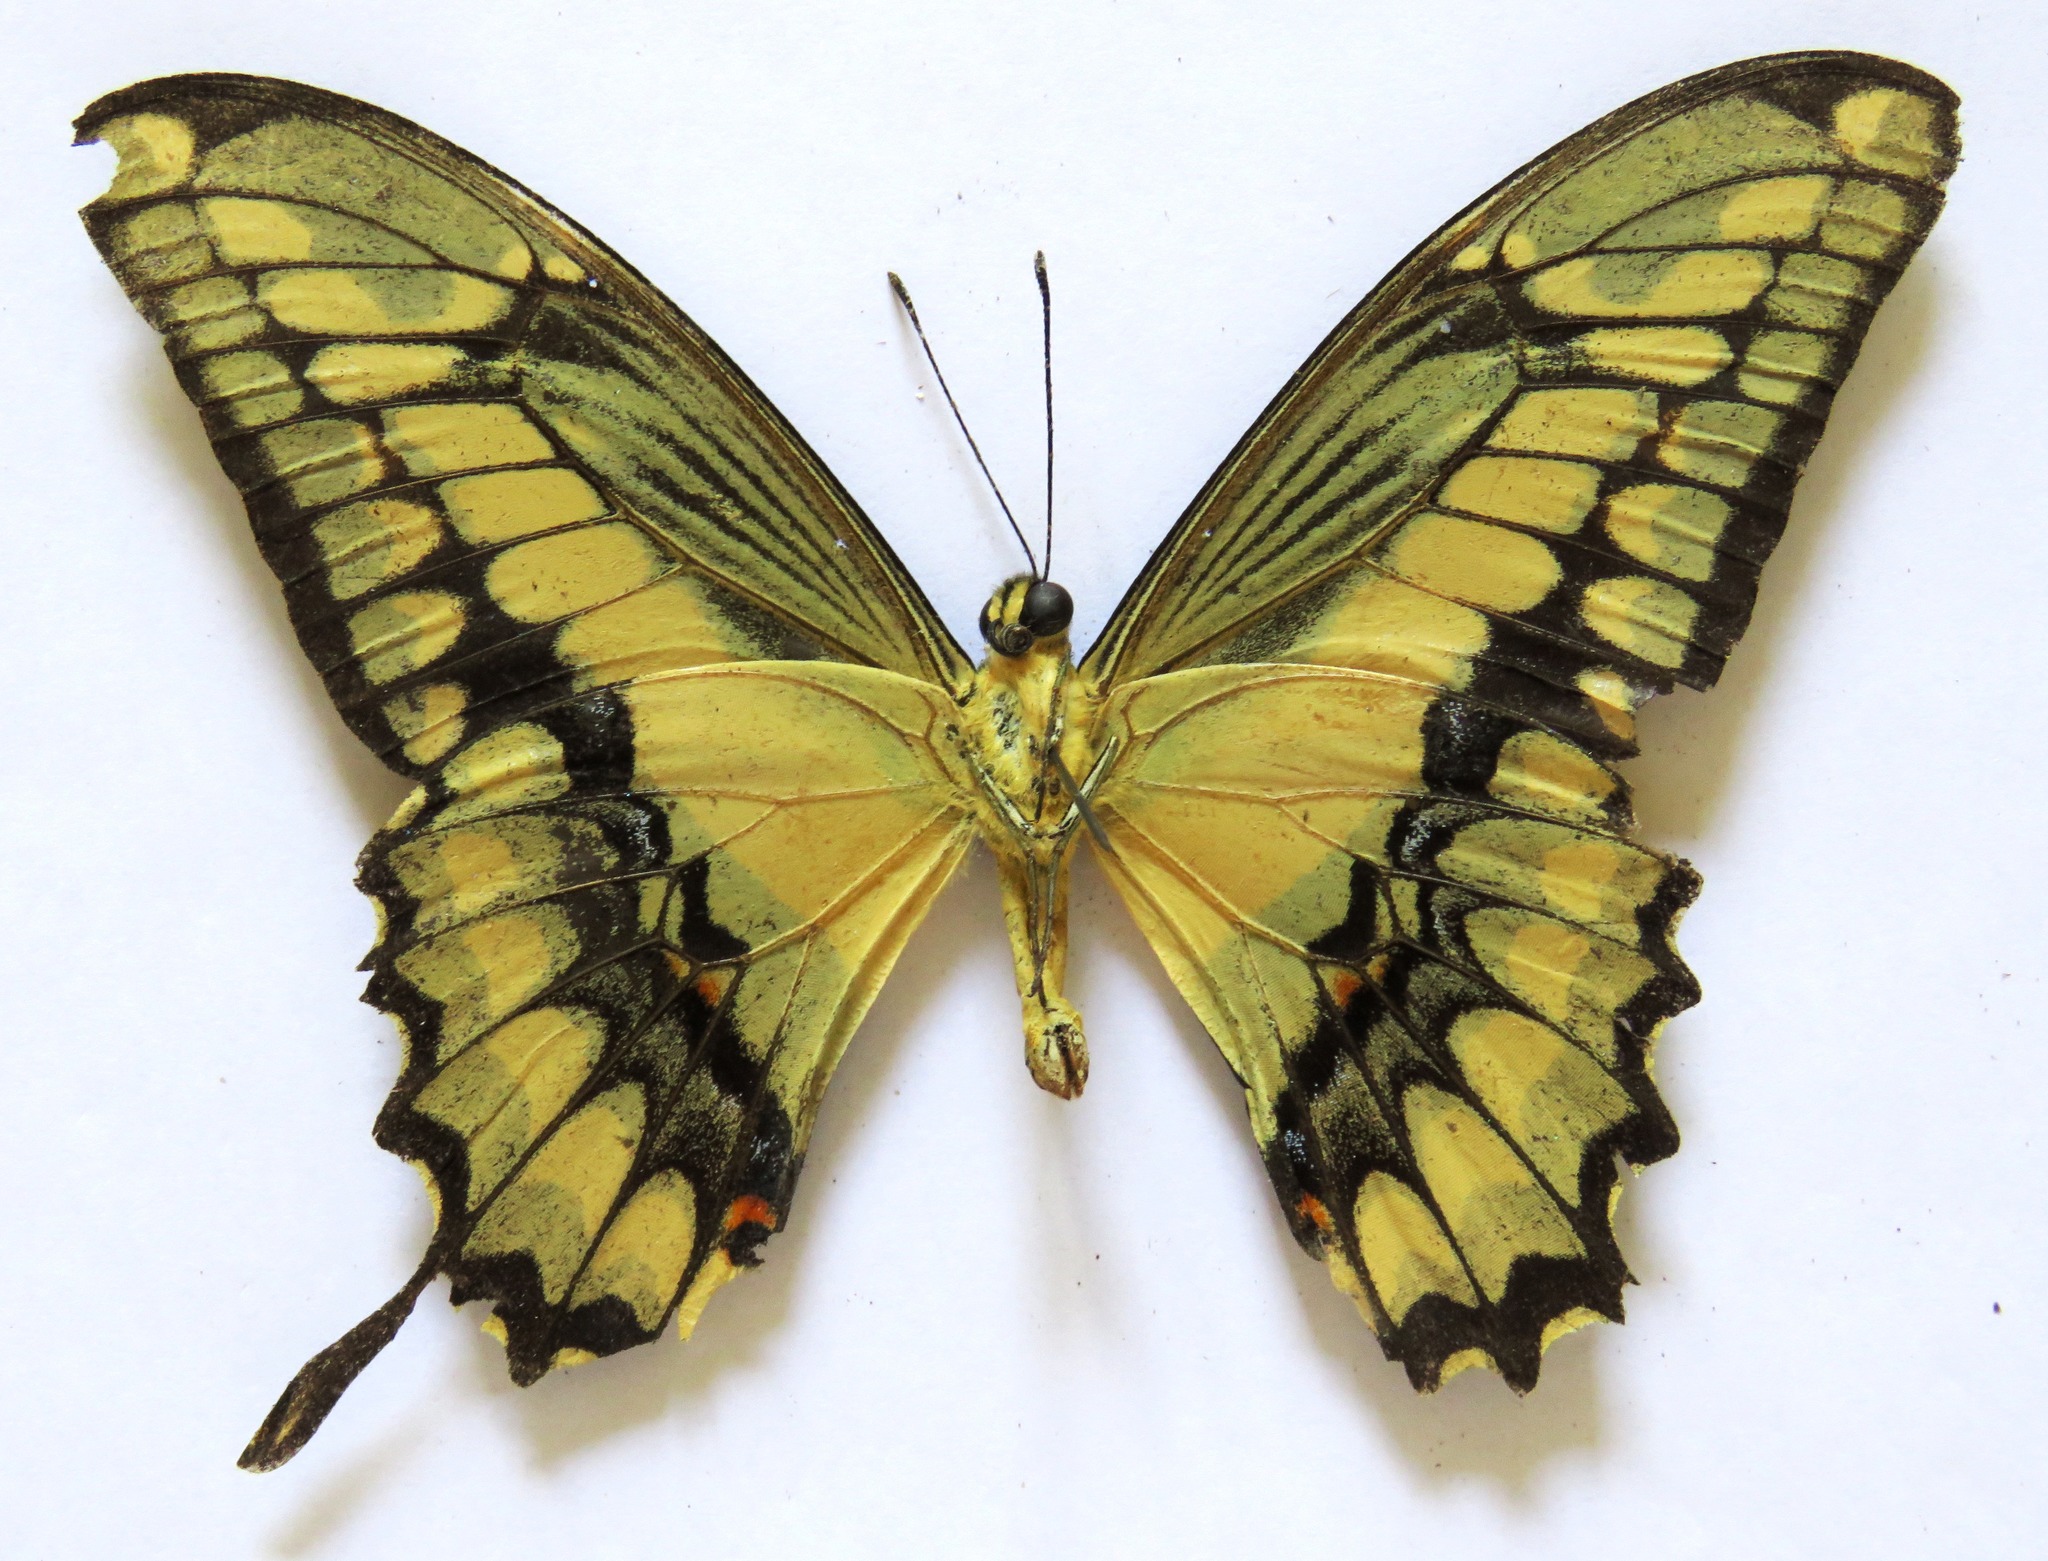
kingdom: Animalia
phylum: Arthropoda
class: Insecta
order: Lepidoptera
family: Papilionidae
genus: Papilio
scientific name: Papilio thoas
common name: King swallowtail
